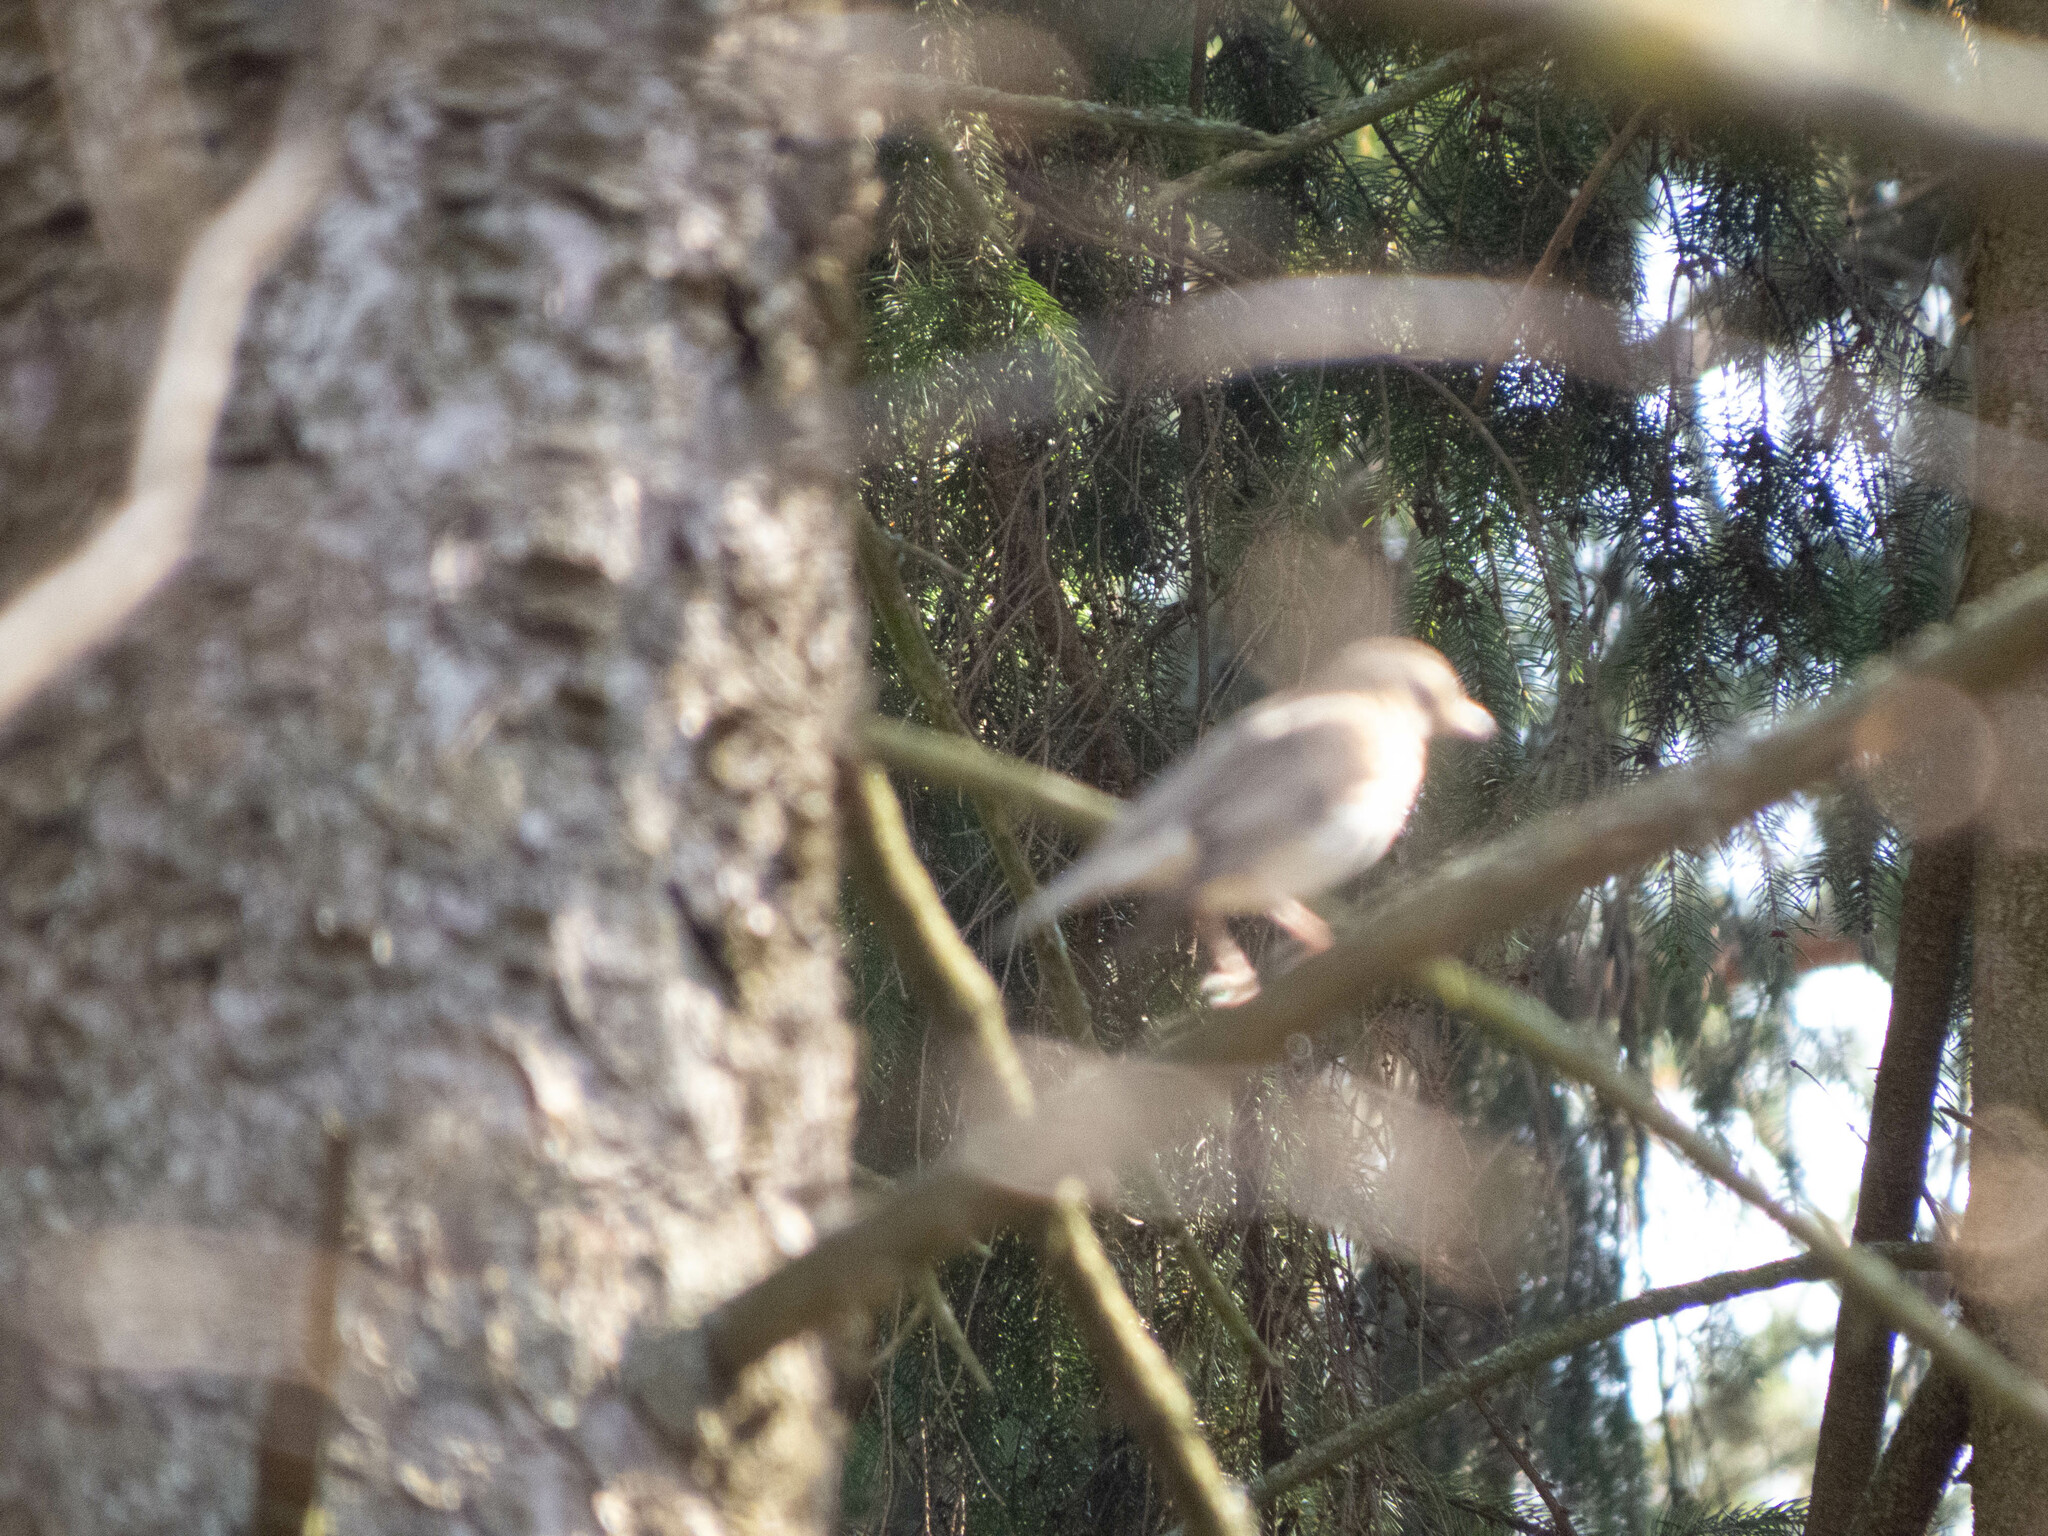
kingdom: Animalia
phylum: Chordata
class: Aves
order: Passeriformes
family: Turdidae
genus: Turdus
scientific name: Turdus philomelos
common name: Song thrush
